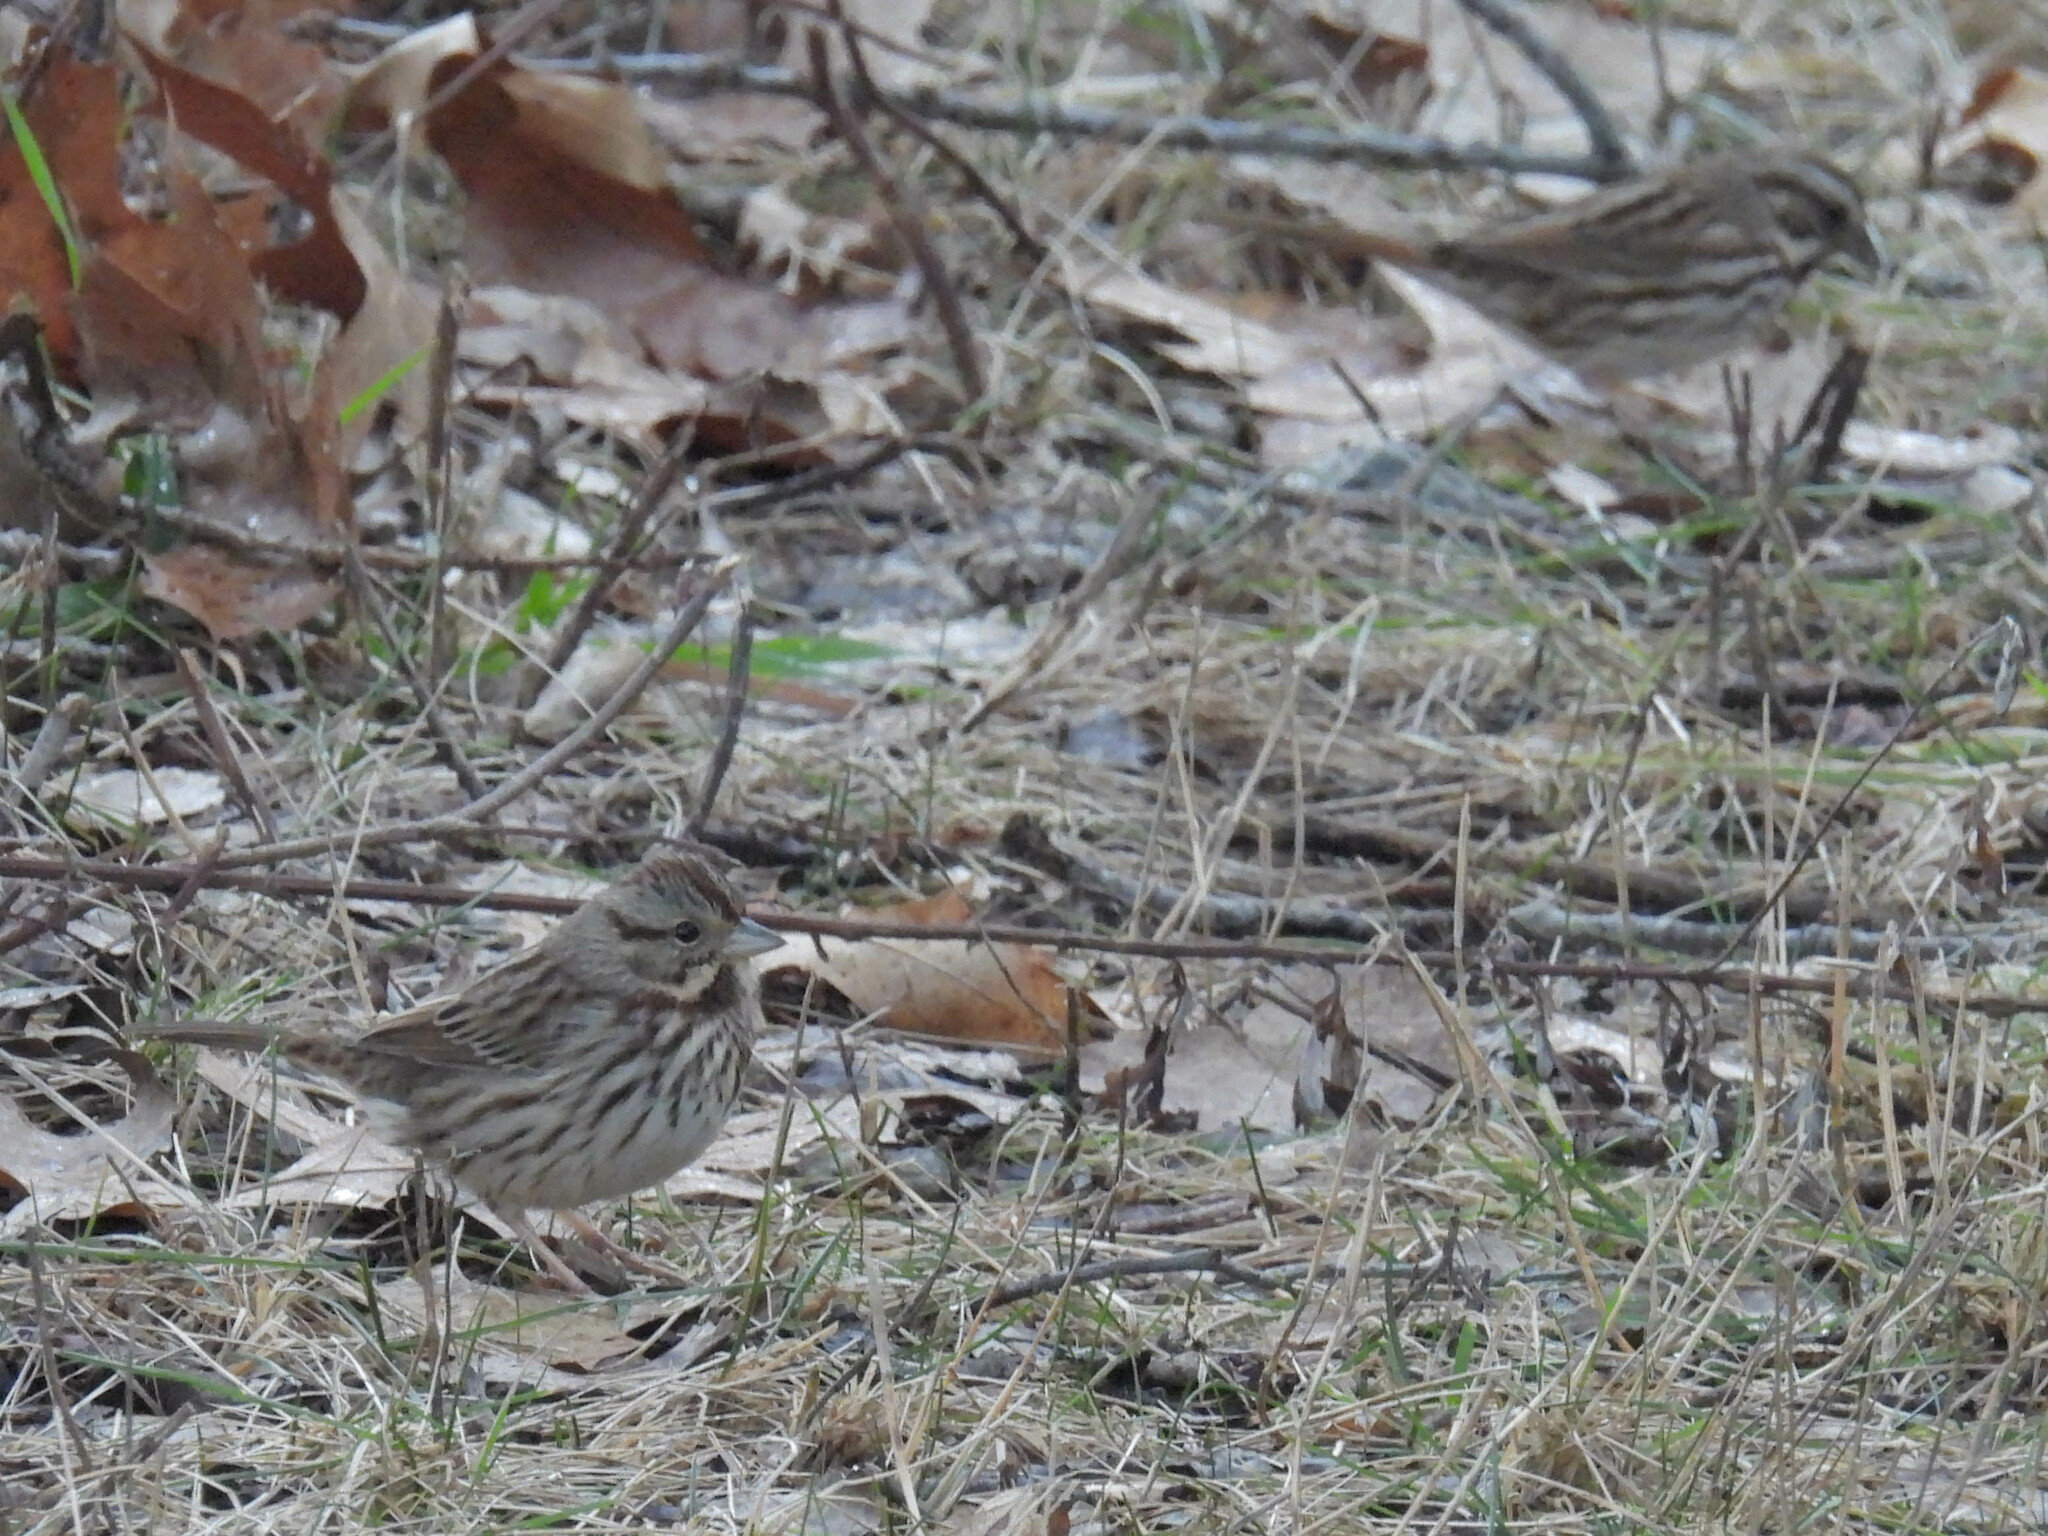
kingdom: Animalia
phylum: Chordata
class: Aves
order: Passeriformes
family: Passerellidae
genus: Melospiza
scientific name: Melospiza melodia
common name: Song sparrow
